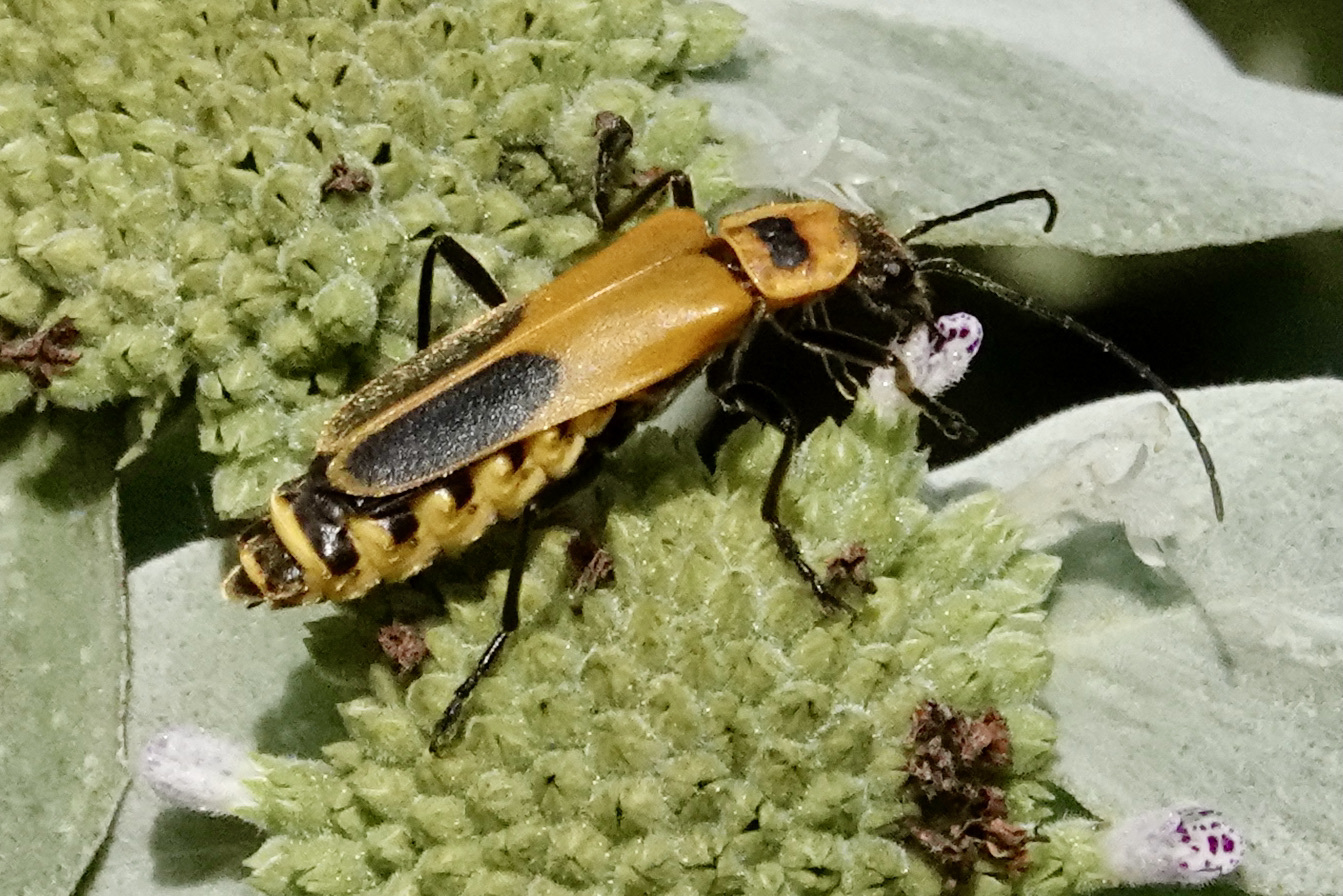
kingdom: Animalia
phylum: Arthropoda
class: Insecta
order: Coleoptera
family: Cantharidae
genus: Chauliognathus
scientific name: Chauliognathus pensylvanicus
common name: Goldenrod soldier beetle
